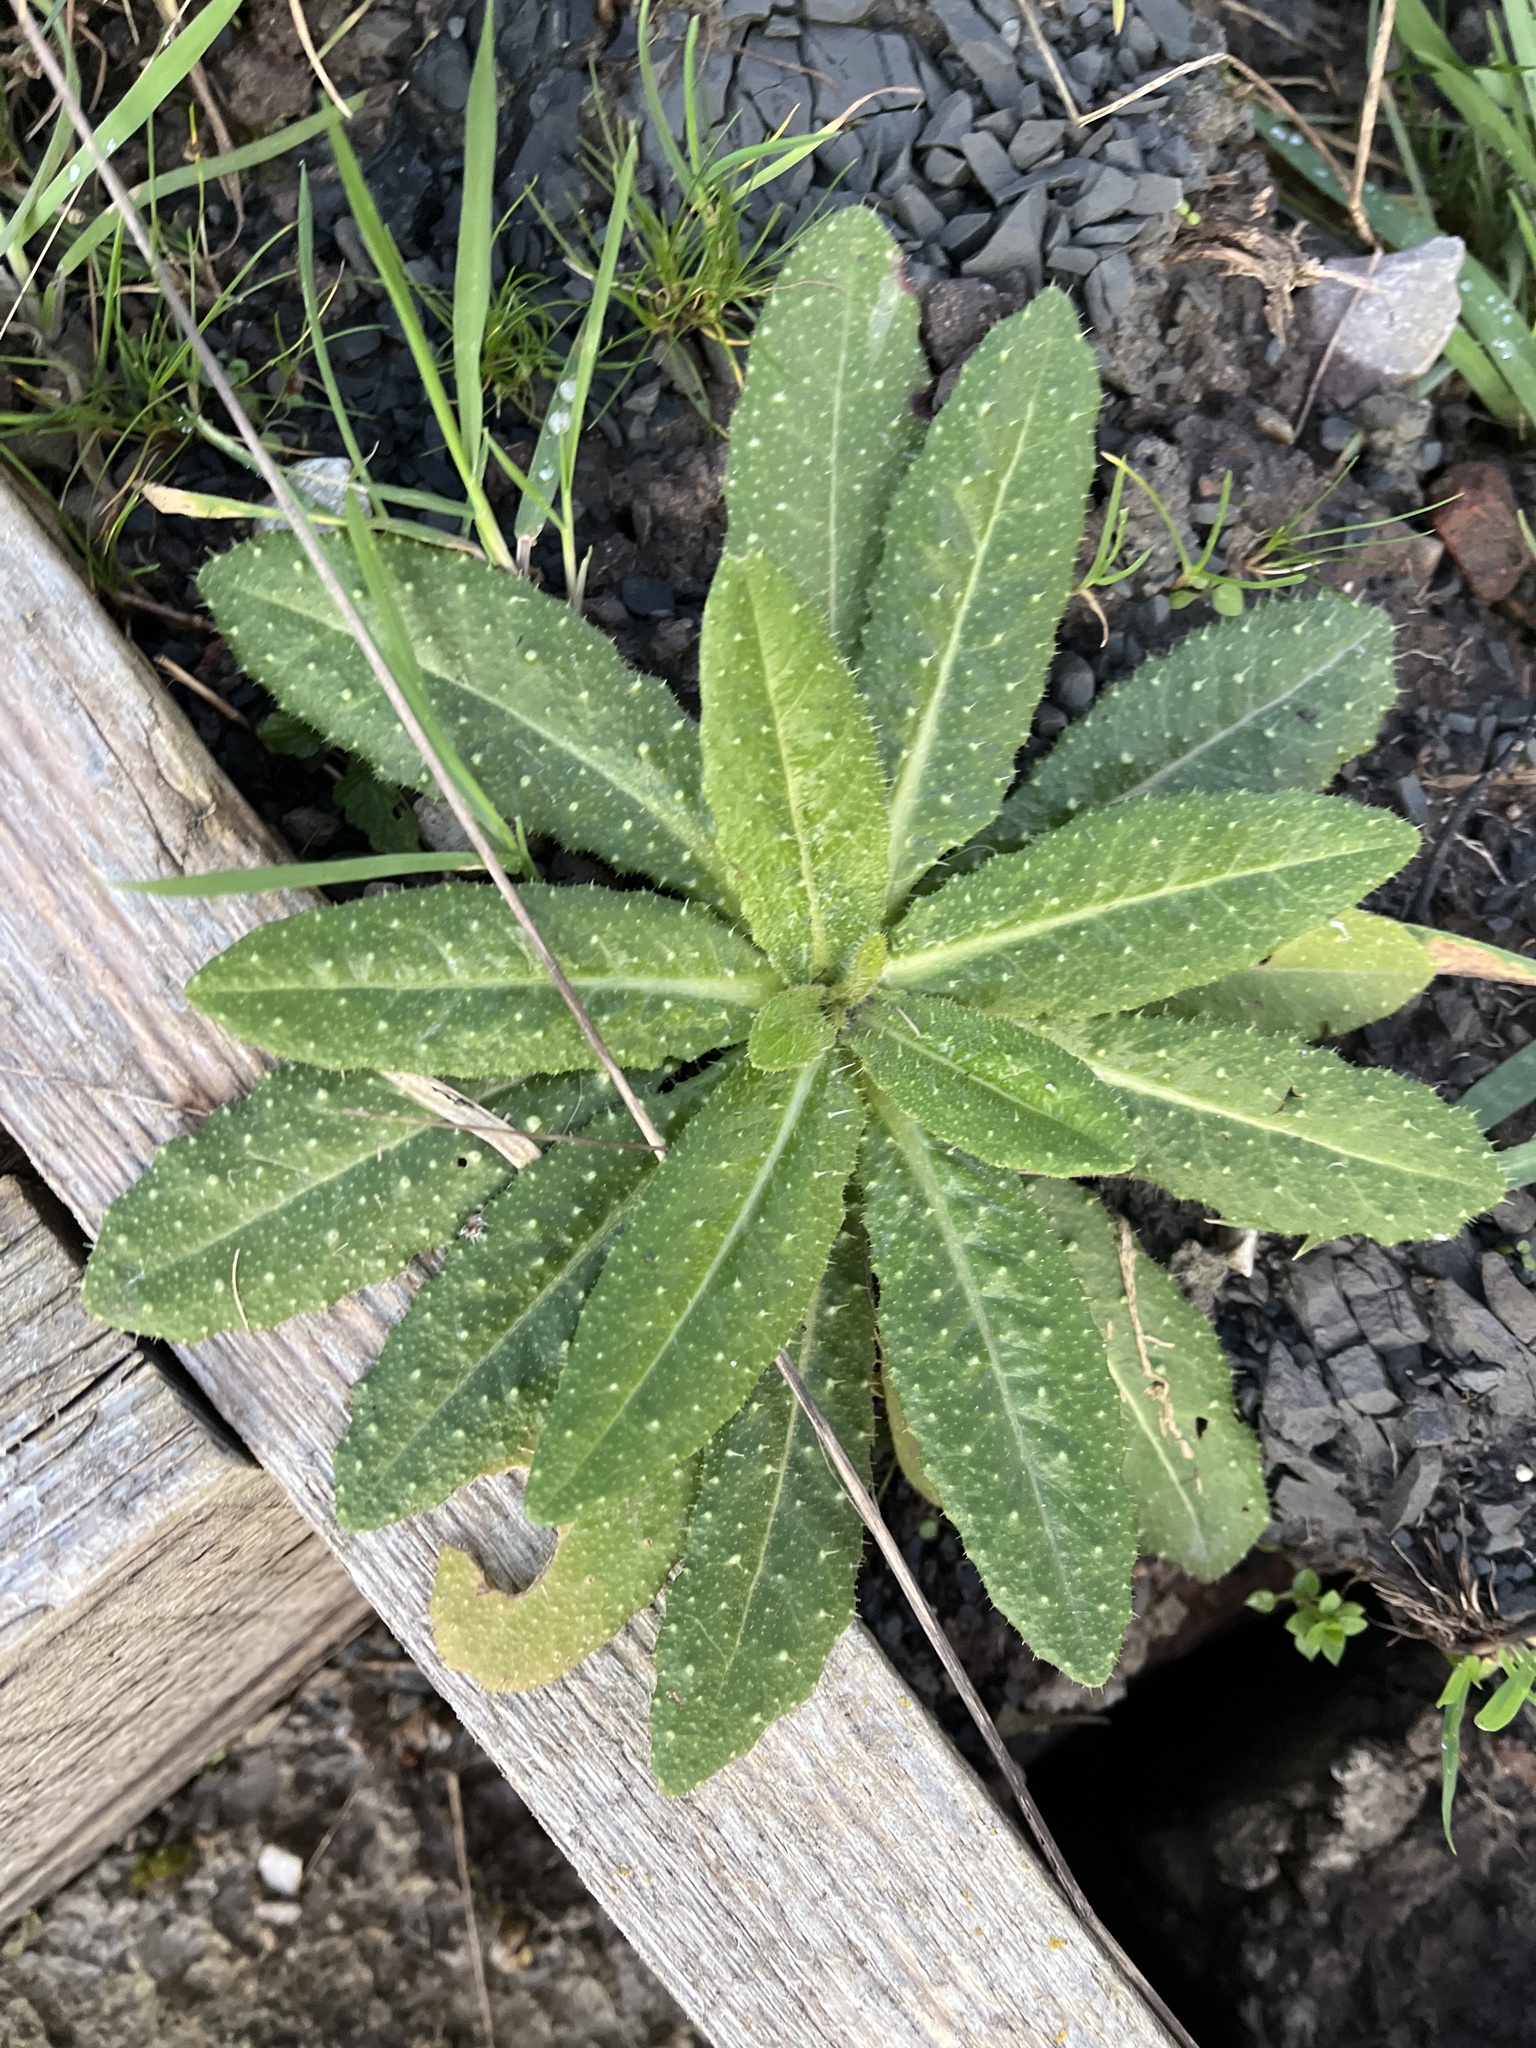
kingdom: Plantae
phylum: Tracheophyta
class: Magnoliopsida
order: Asterales
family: Asteraceae
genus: Helminthotheca
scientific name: Helminthotheca echioides
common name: Ox-tongue
